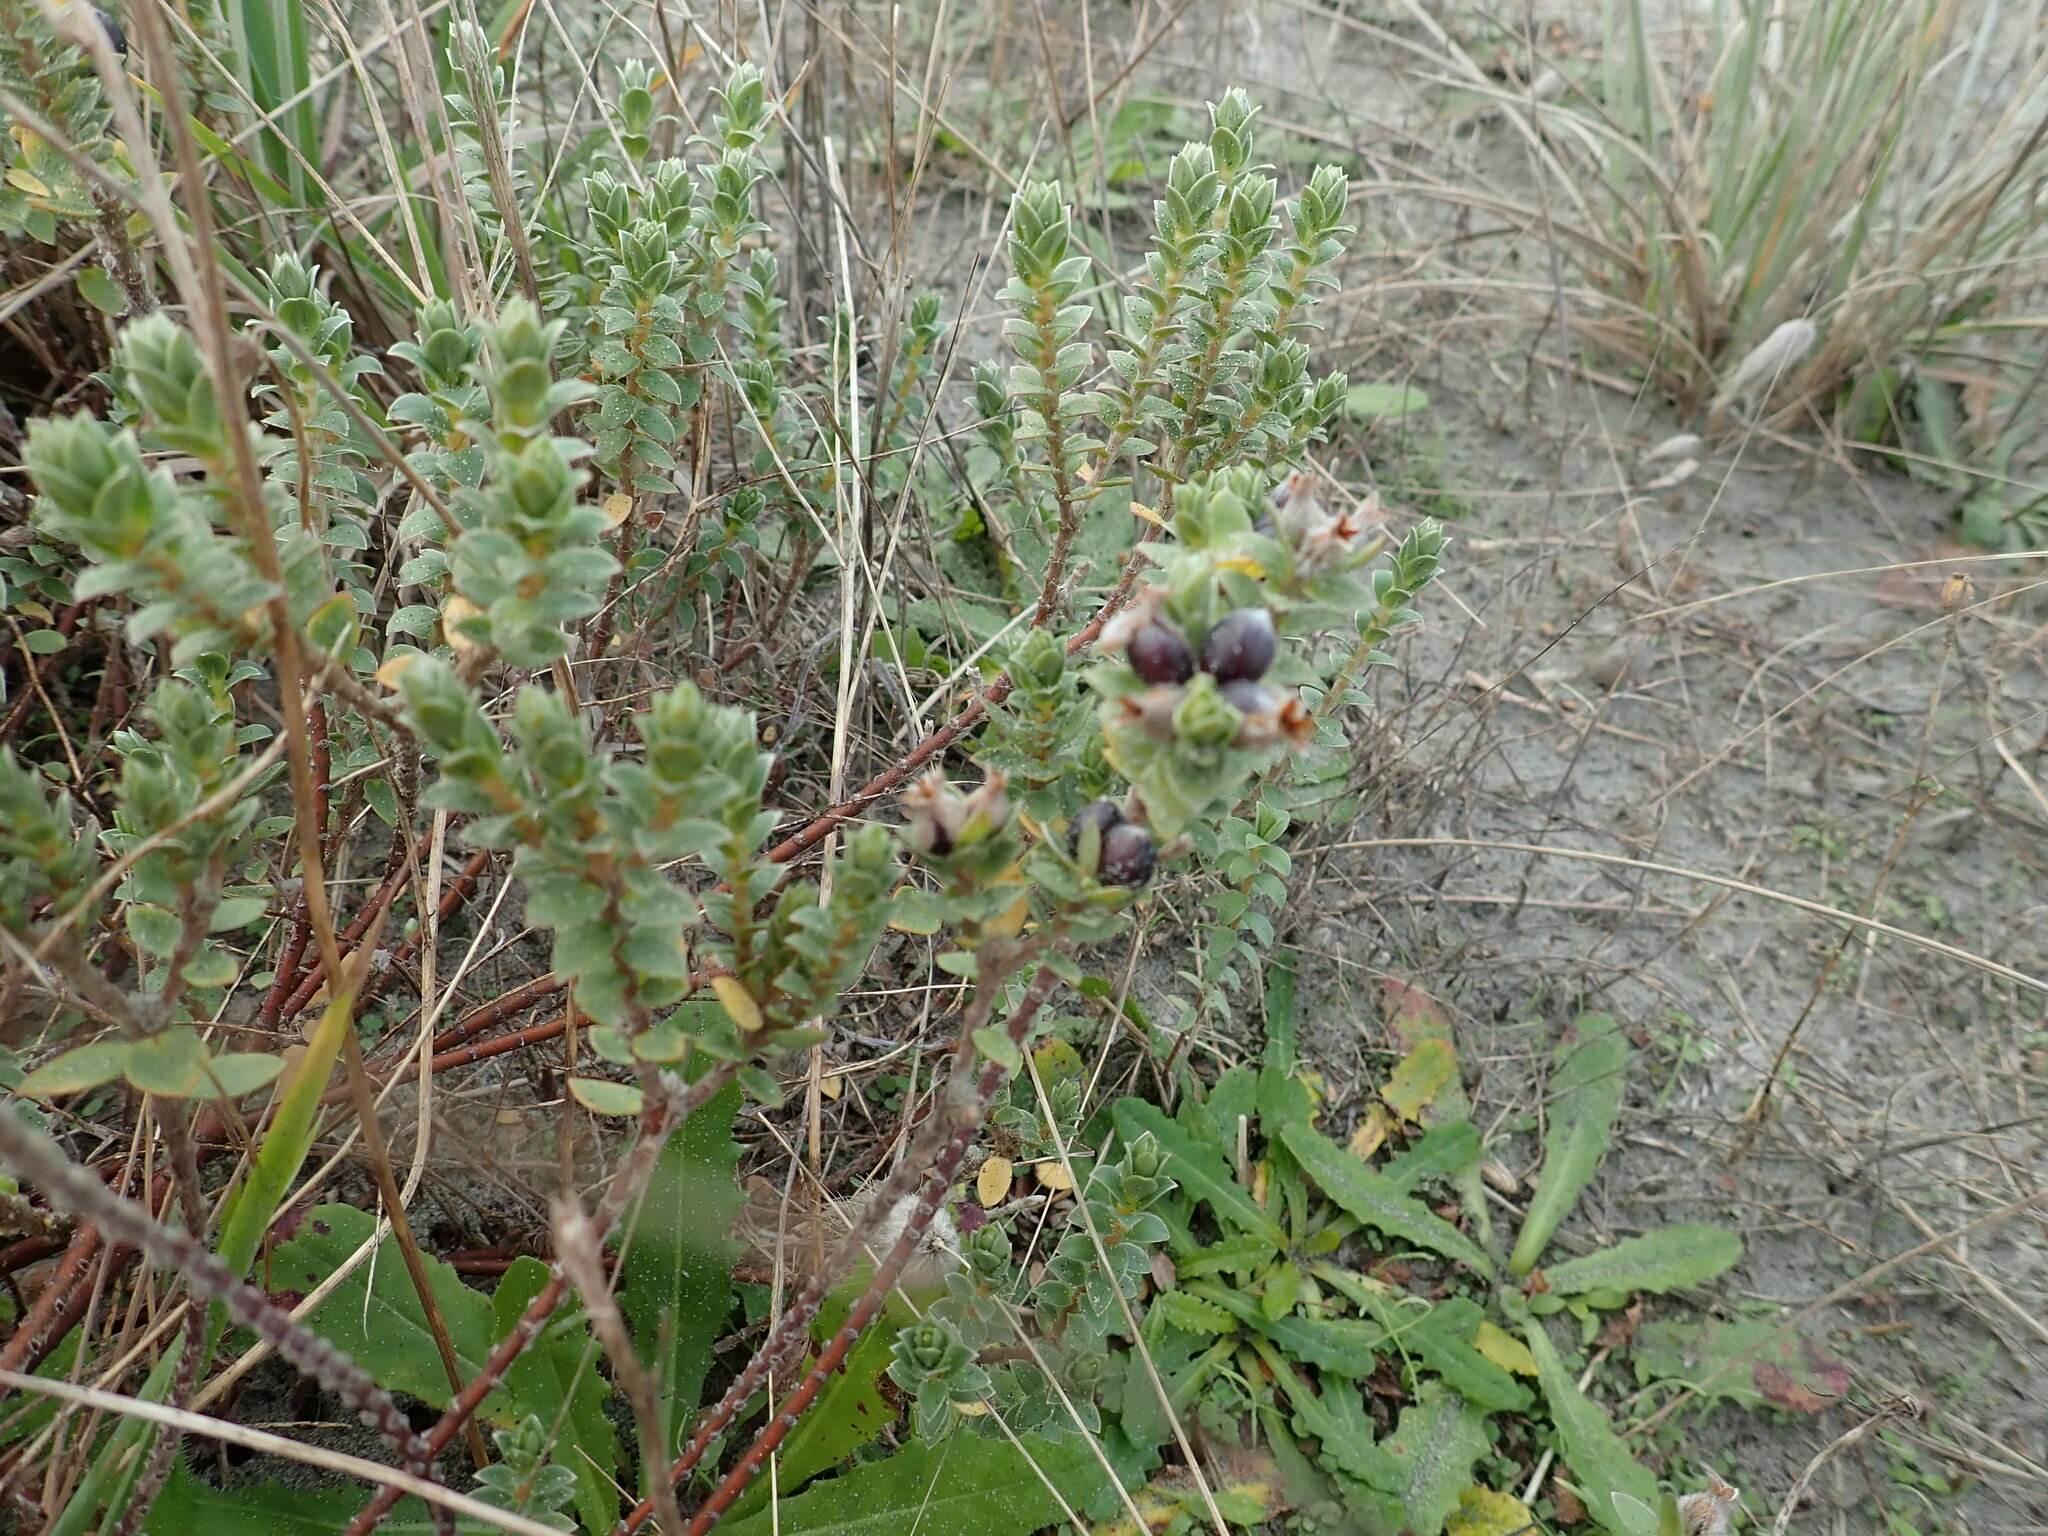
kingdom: Plantae
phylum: Tracheophyta
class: Magnoliopsida
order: Malvales
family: Thymelaeaceae
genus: Pimelea
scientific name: Pimelea villosa
